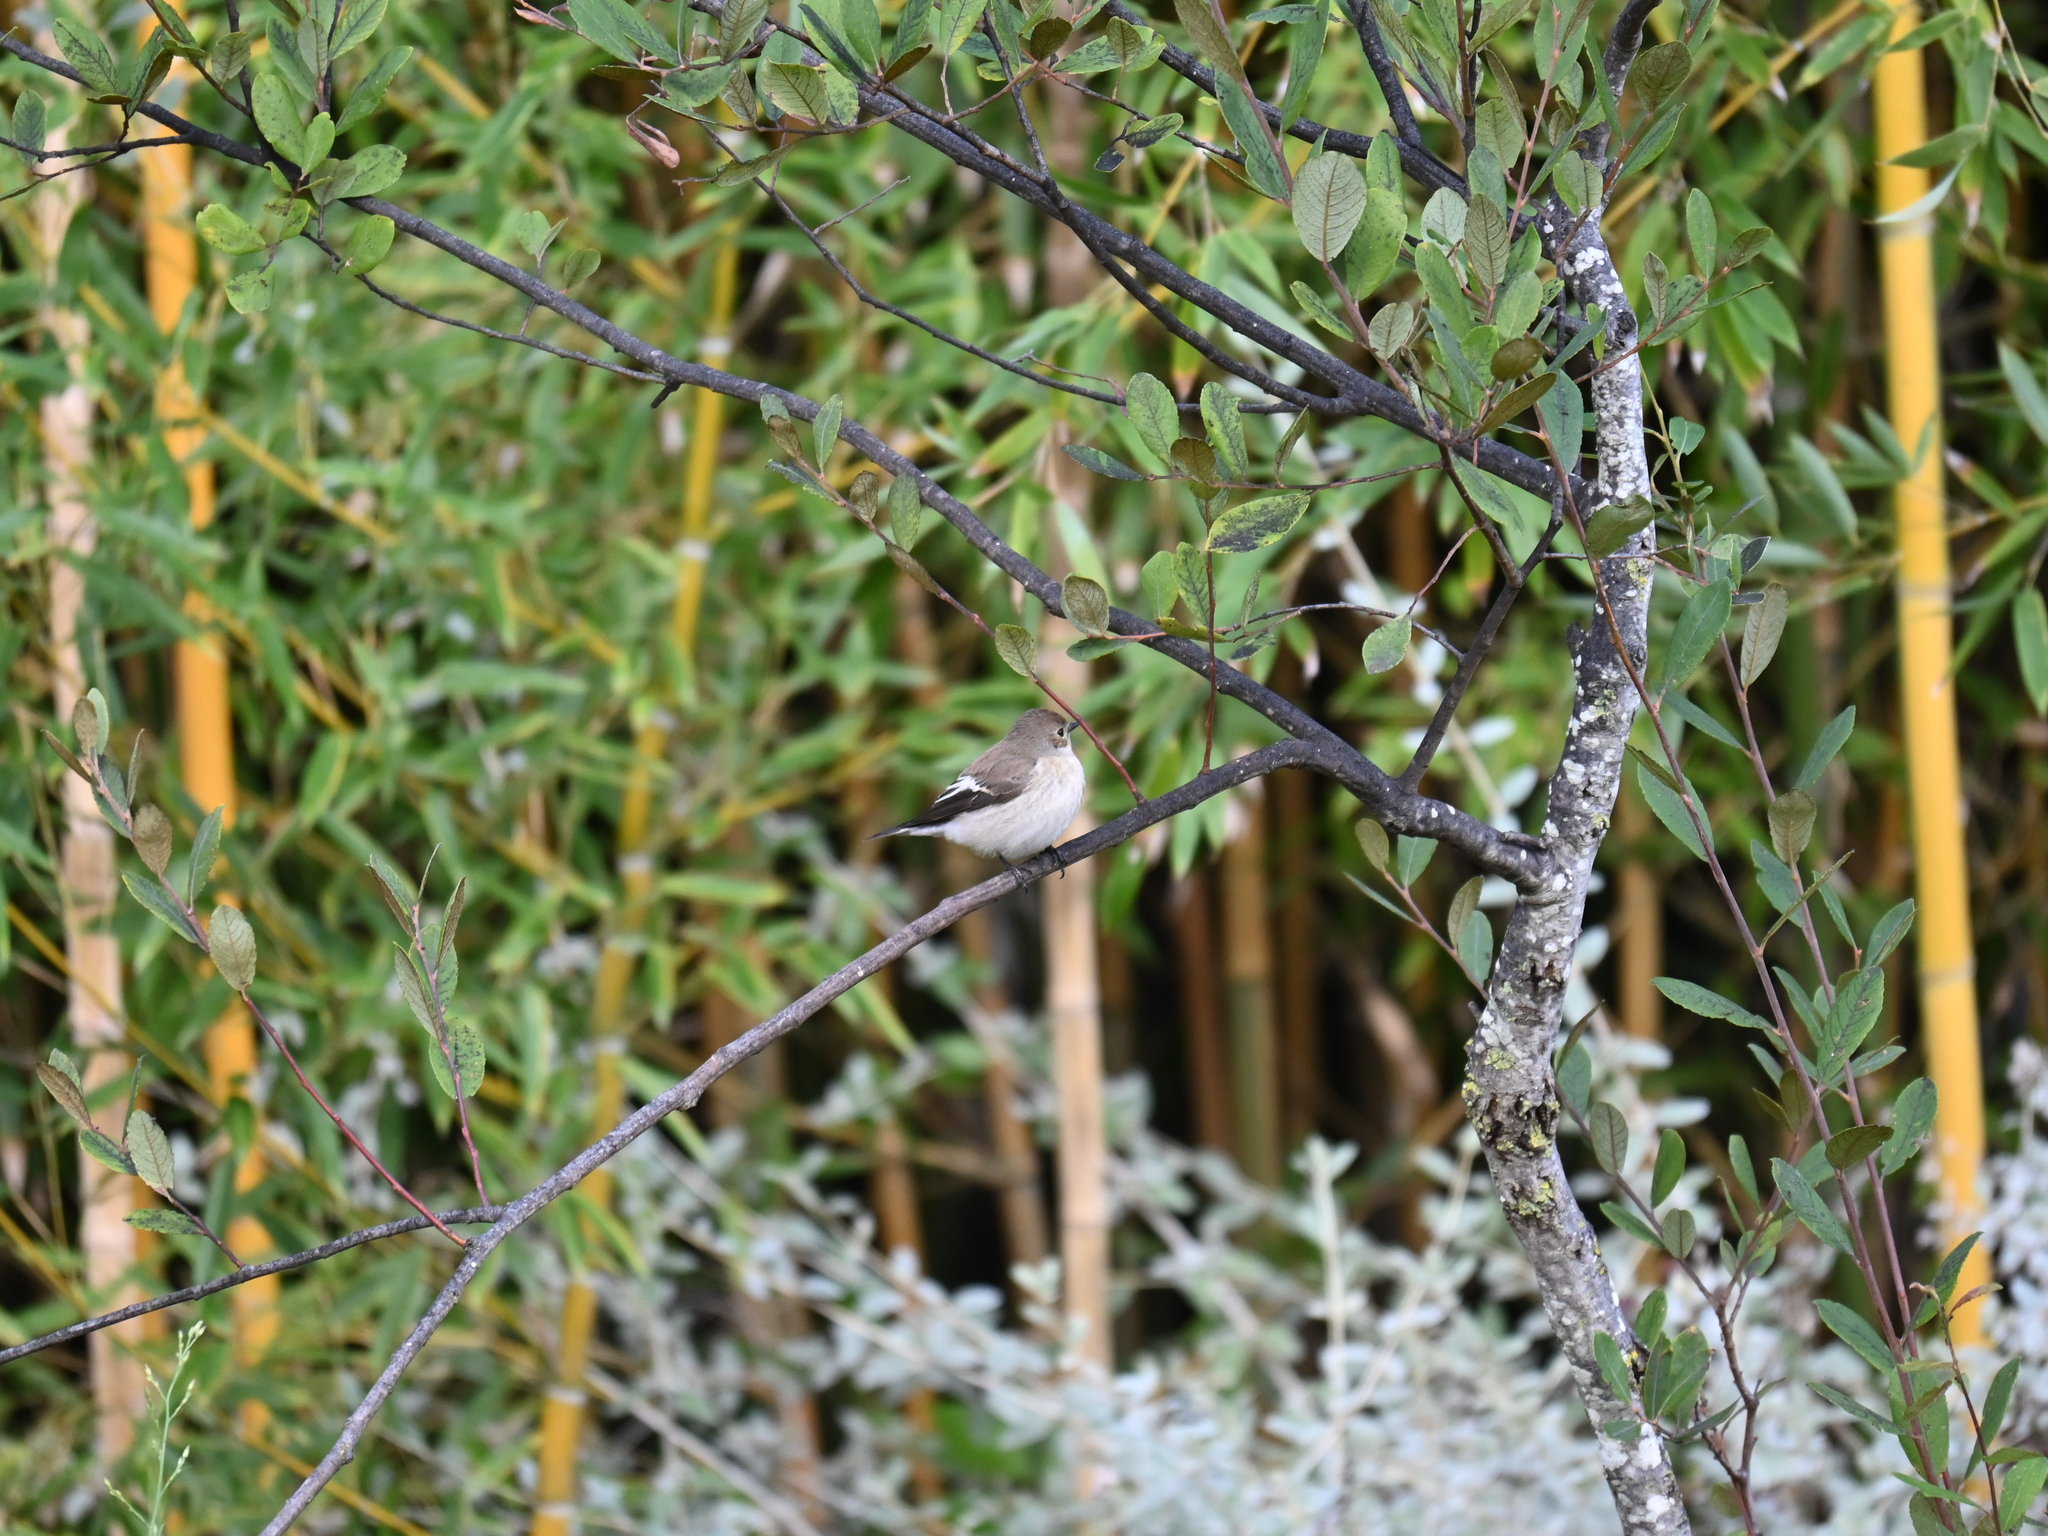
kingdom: Animalia
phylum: Chordata
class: Aves
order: Passeriformes
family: Muscicapidae
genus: Ficedula
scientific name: Ficedula hypoleuca
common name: European pied flycatcher
